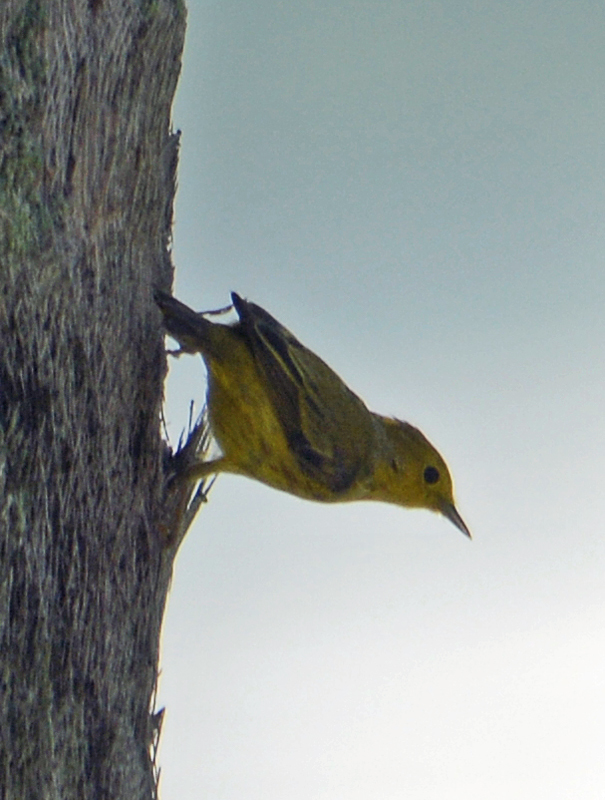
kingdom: Animalia
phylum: Chordata
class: Aves
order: Passeriformes
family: Parulidae
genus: Setophaga
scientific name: Setophaga petechia
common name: Yellow warbler
